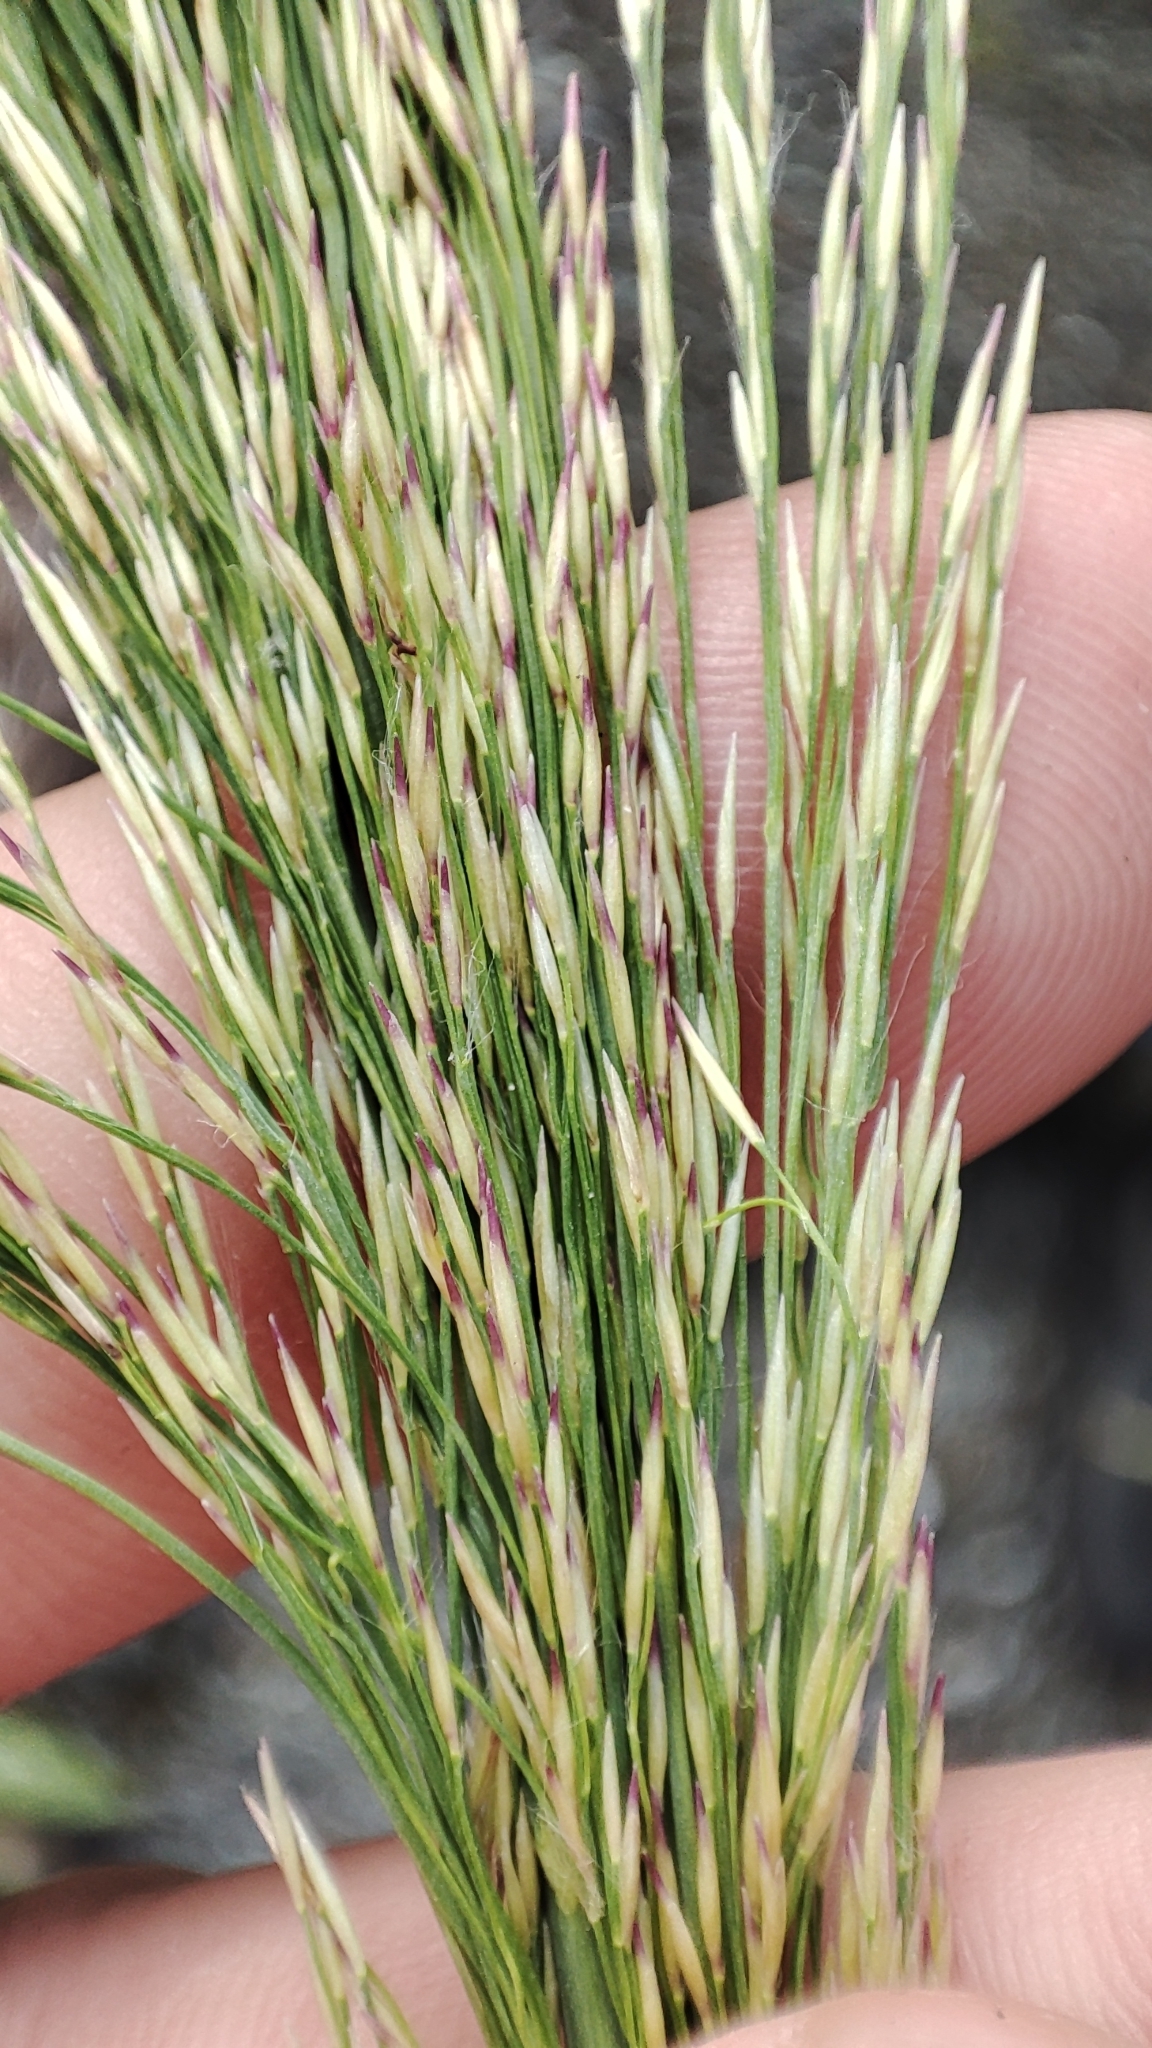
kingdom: Plantae
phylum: Tracheophyta
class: Liliopsida
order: Poales
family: Poaceae
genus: Phragmites
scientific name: Phragmites australis
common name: Common reed
